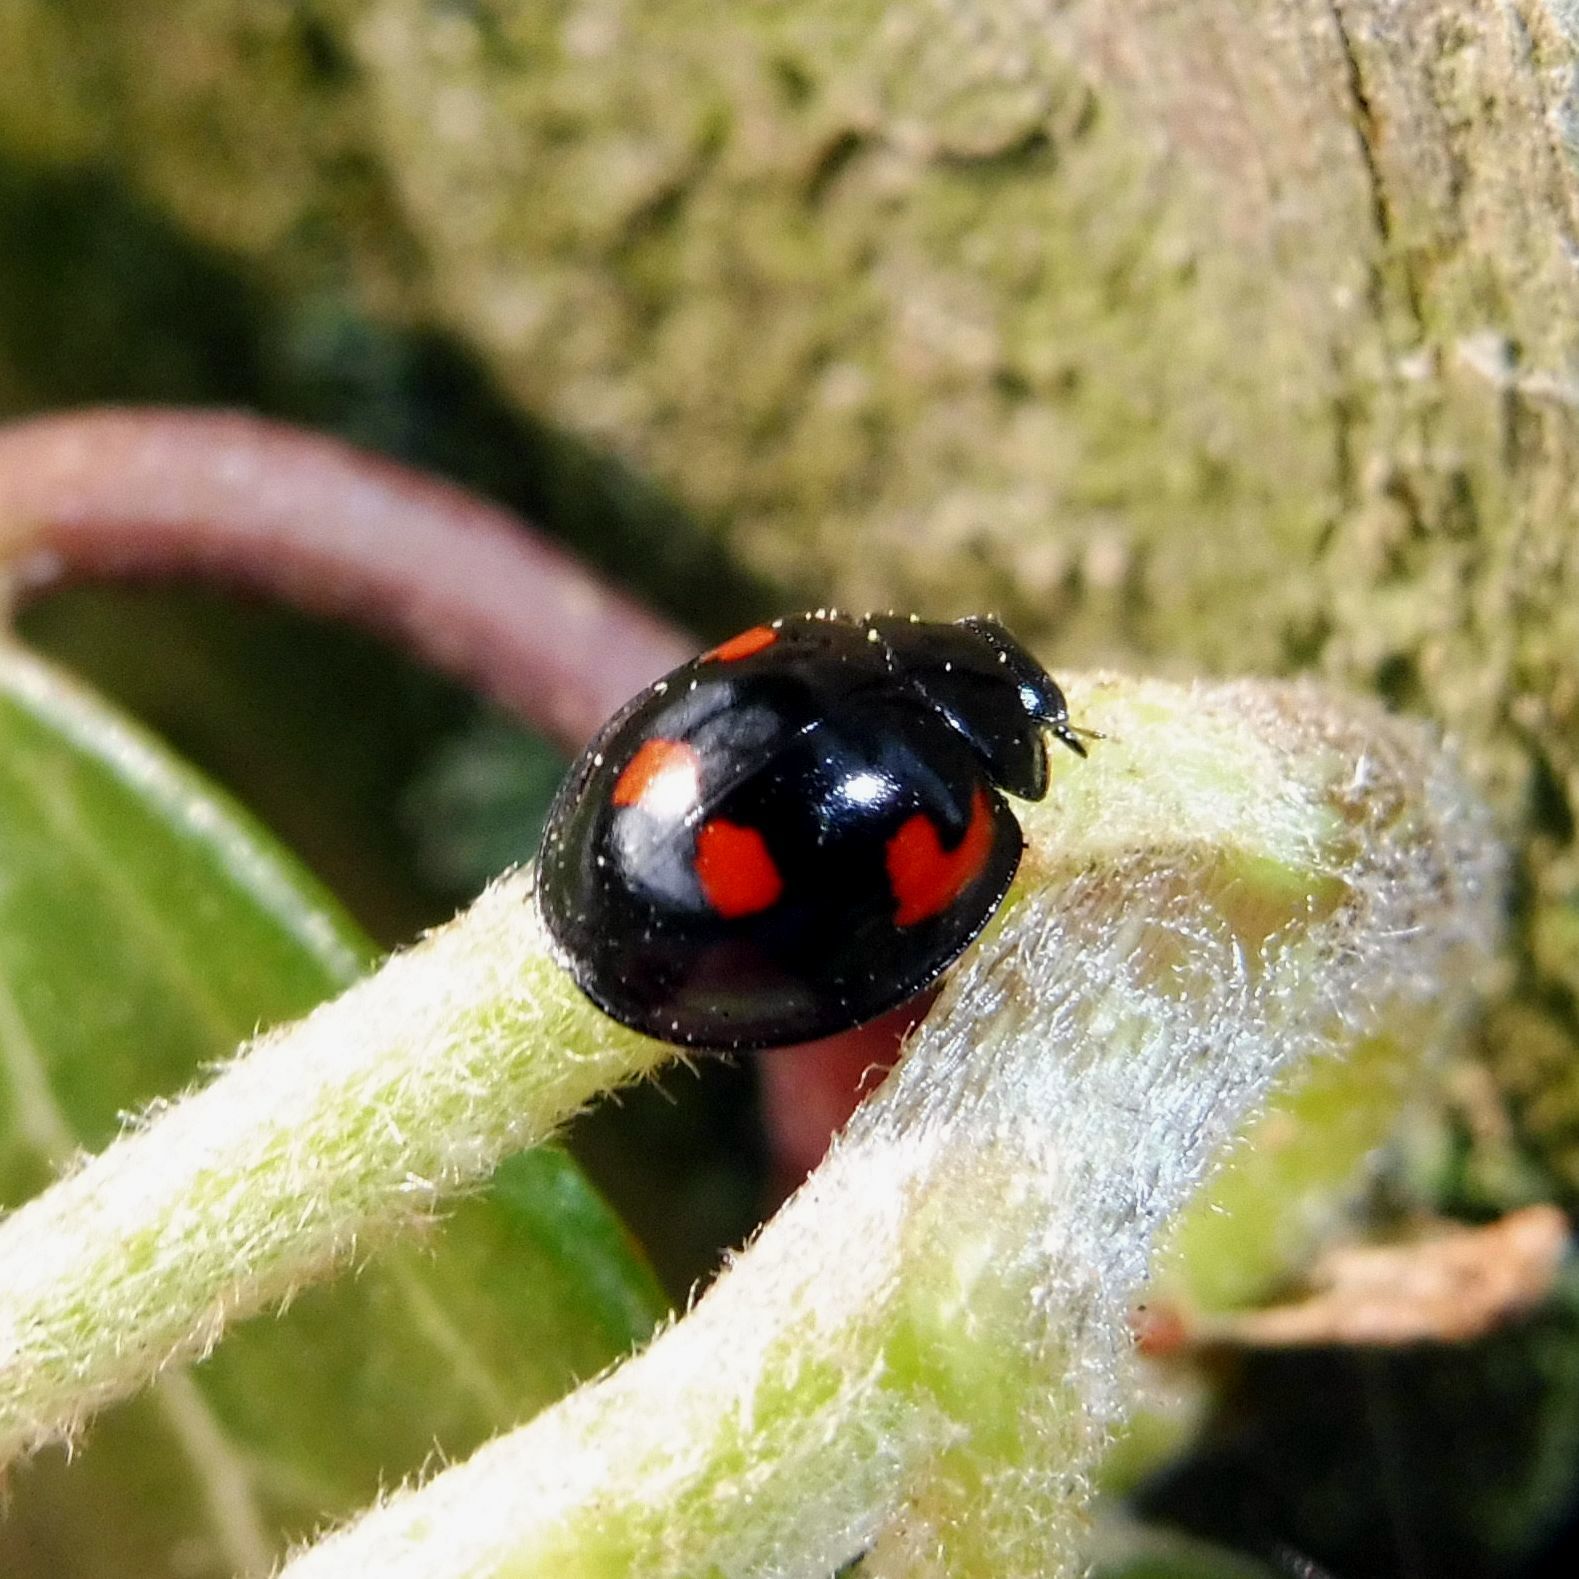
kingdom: Animalia
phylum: Arthropoda
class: Insecta
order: Coleoptera
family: Coccinellidae
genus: Brumus
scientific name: Brumus quadripustulatus
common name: Ladybird beetle
